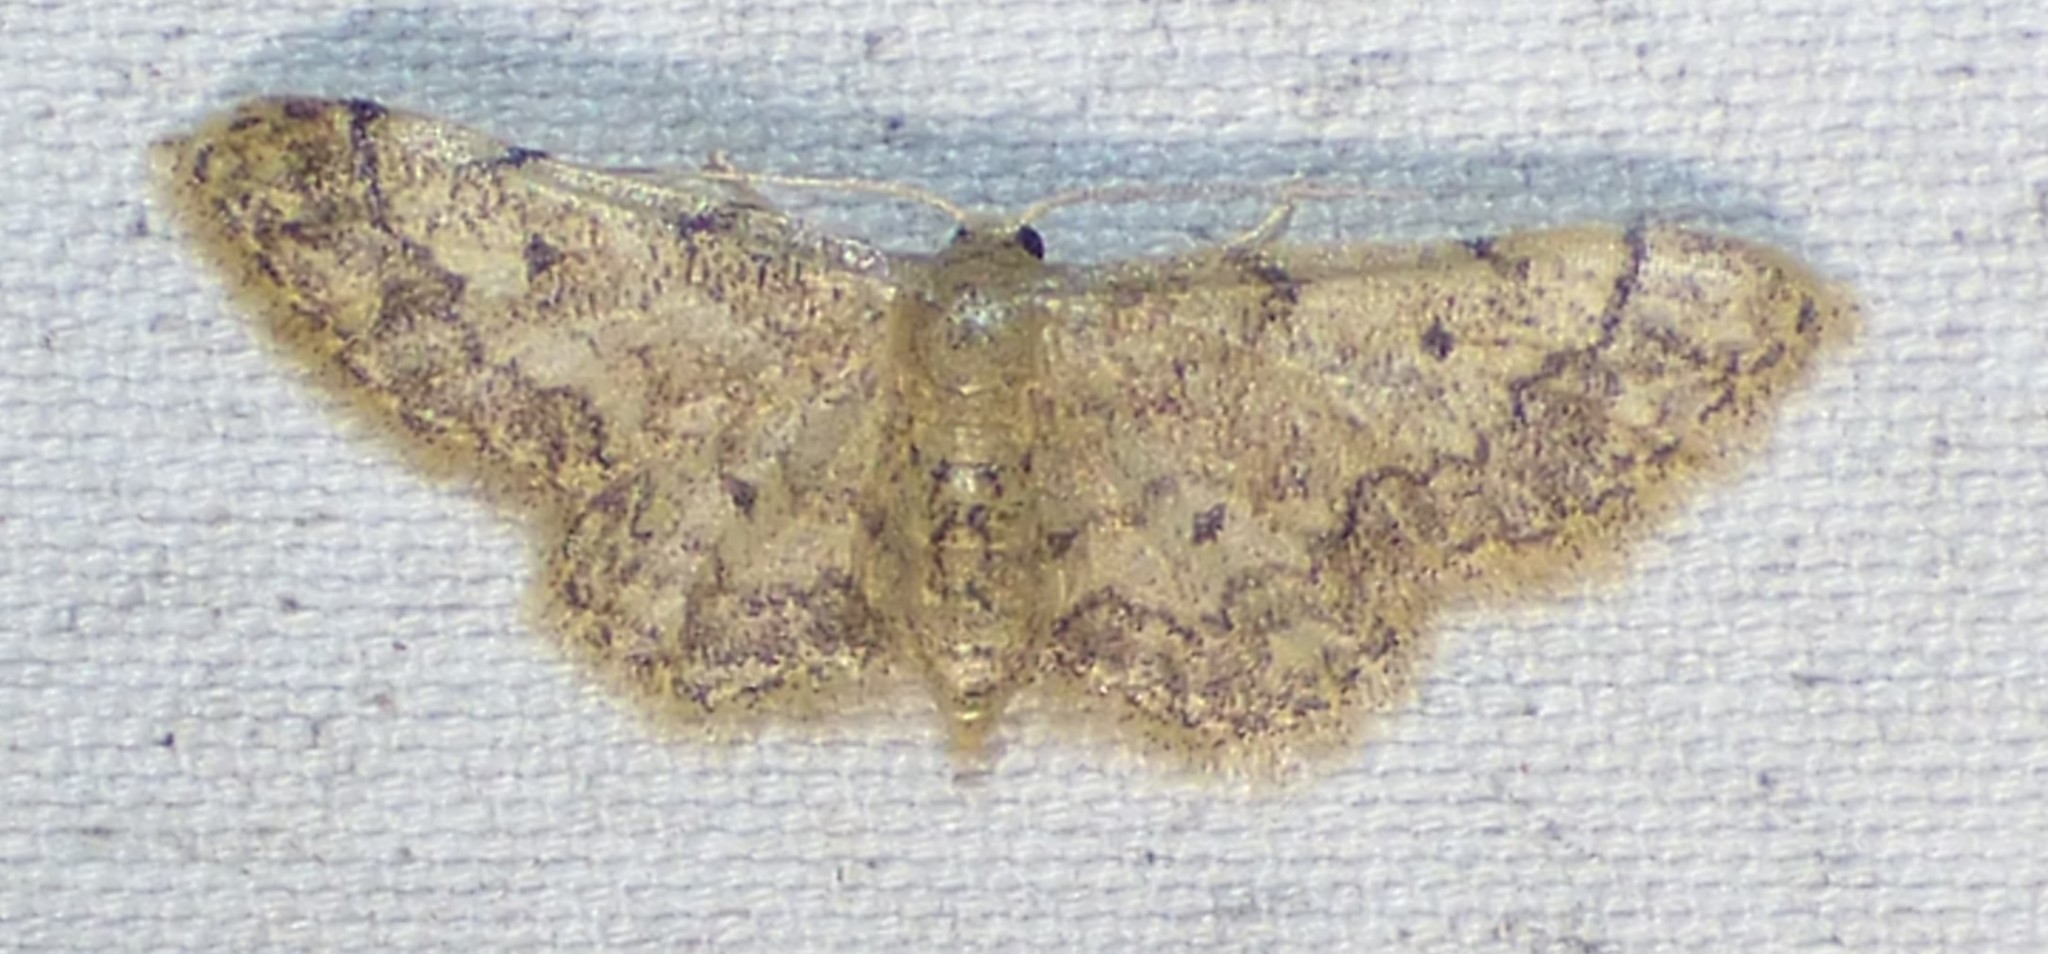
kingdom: Animalia
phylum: Arthropoda
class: Insecta
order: Lepidoptera
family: Geometridae
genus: Idaea
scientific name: Idaea demissaria
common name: Red-bordered wave
